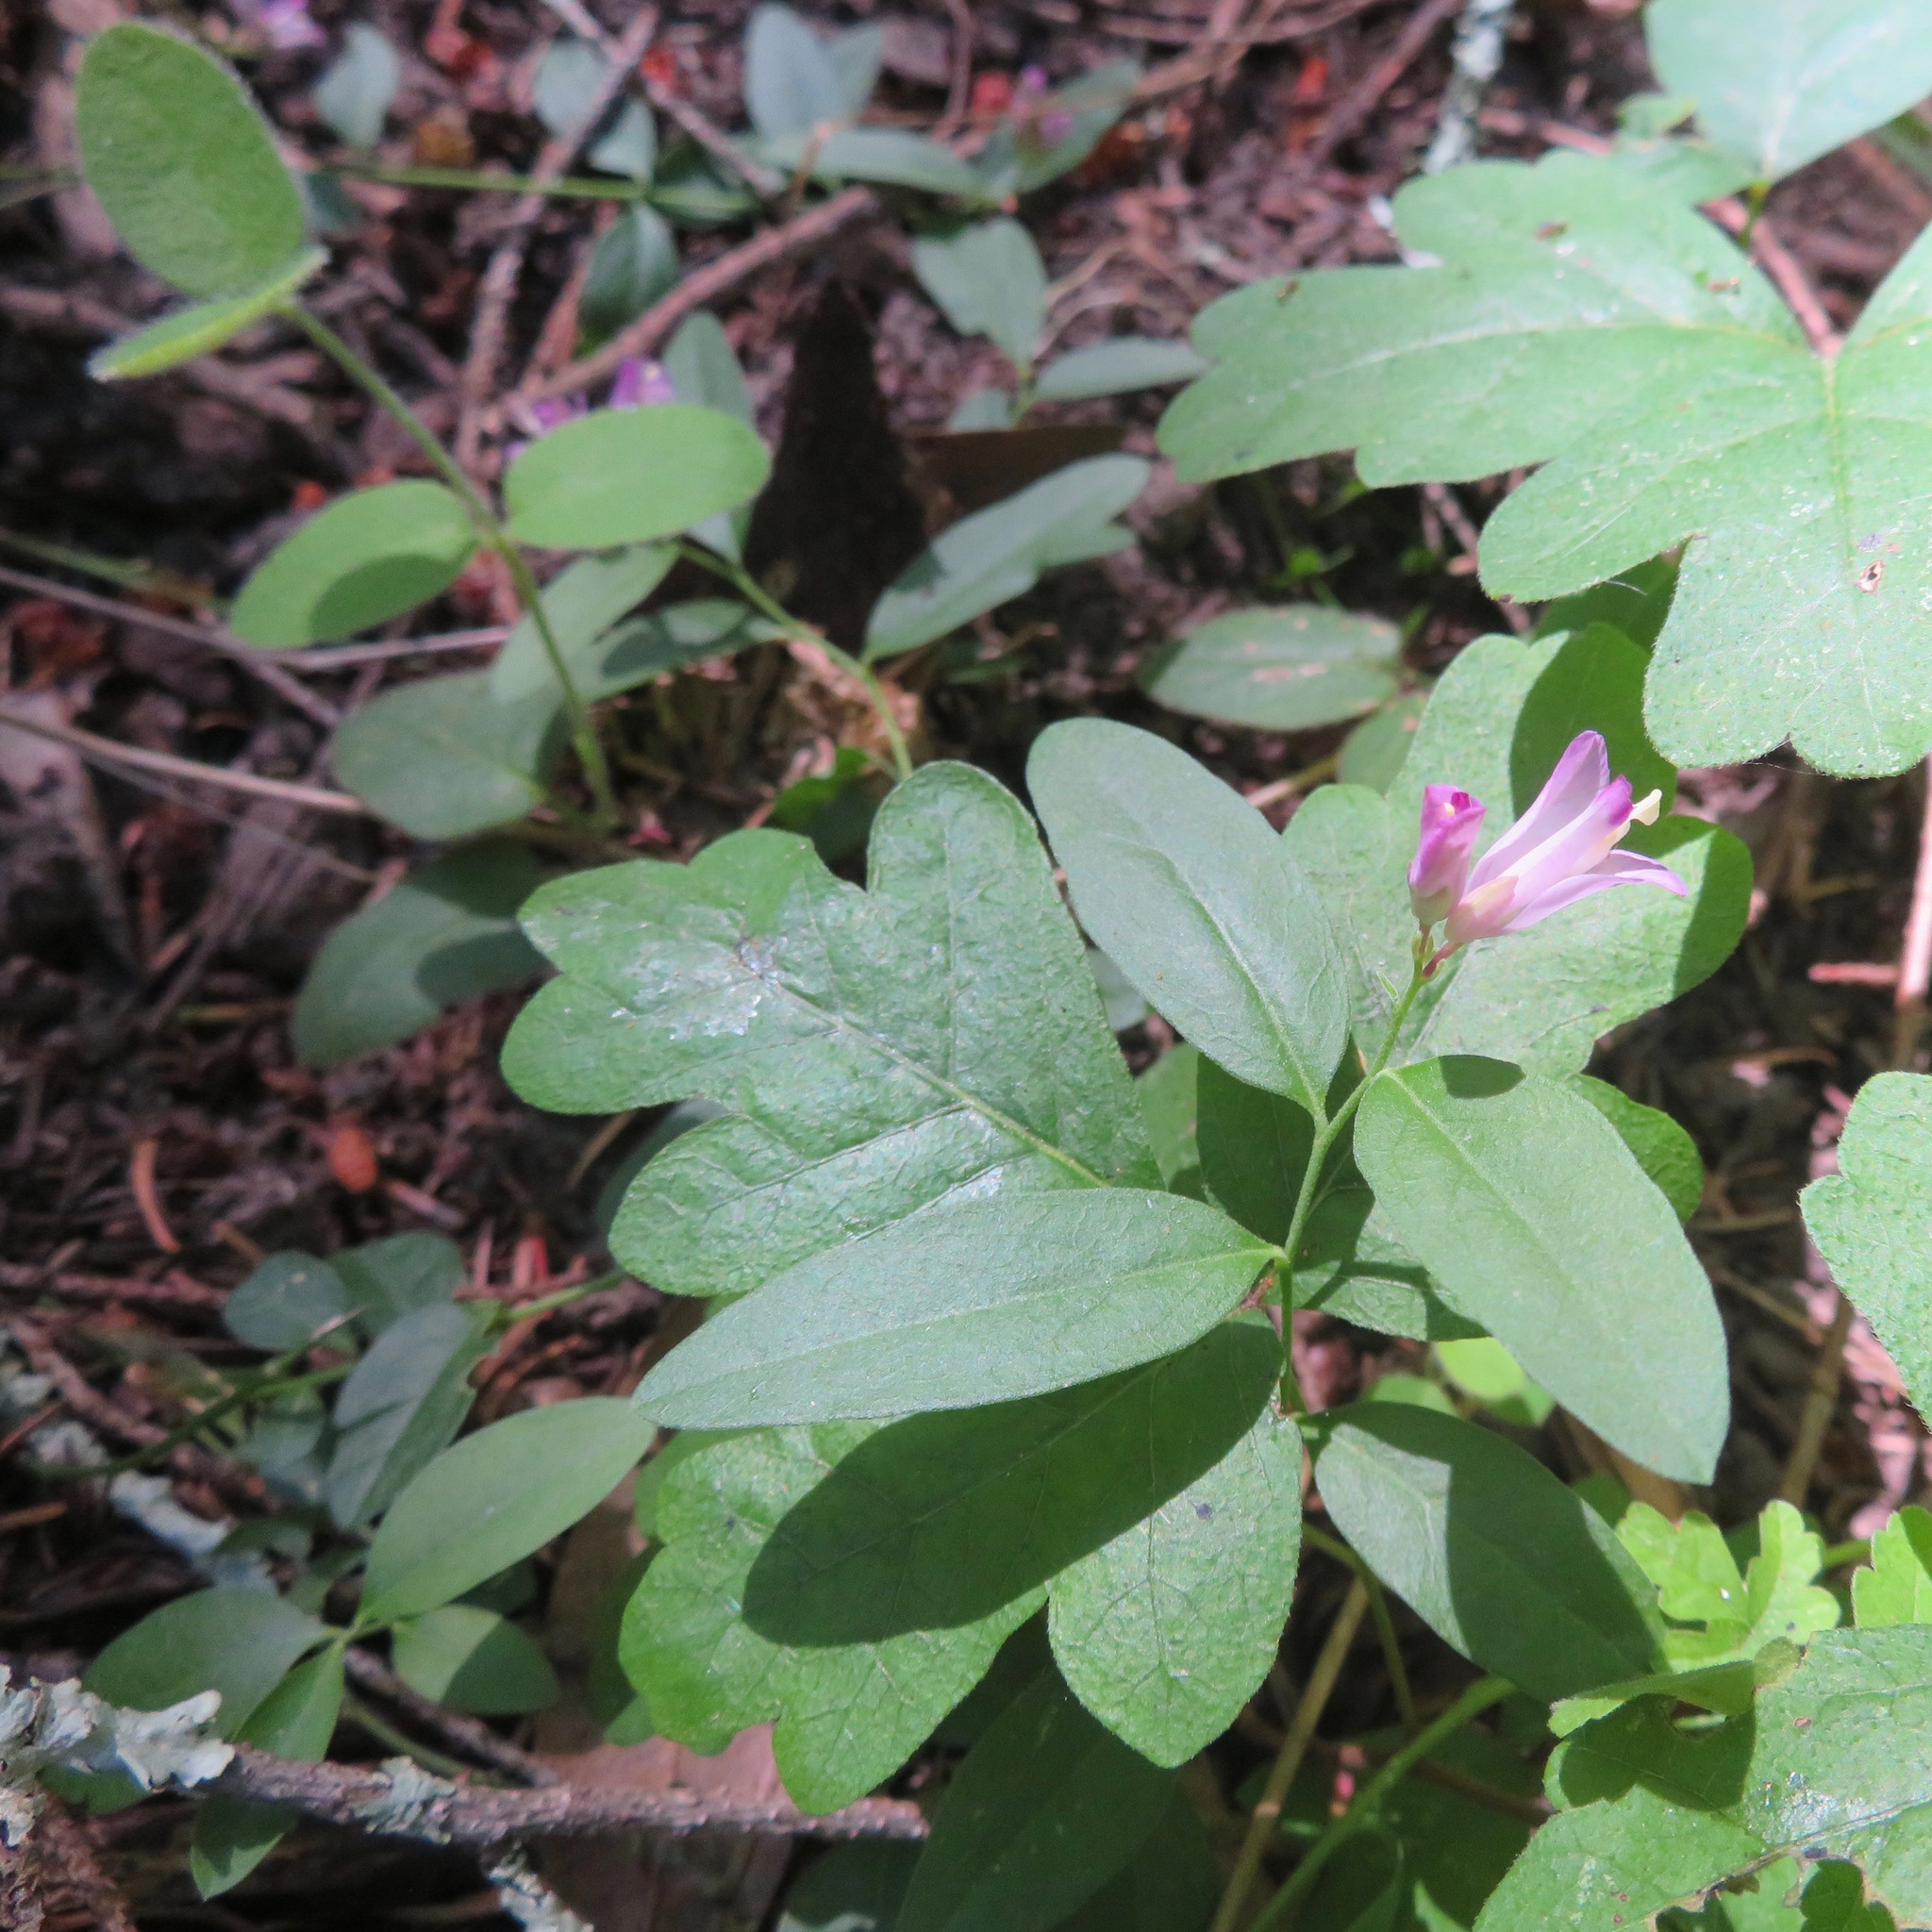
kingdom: Plantae
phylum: Tracheophyta
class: Magnoliopsida
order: Fabales
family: Polygalaceae
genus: Rhinotropis
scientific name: Rhinotropis californica
